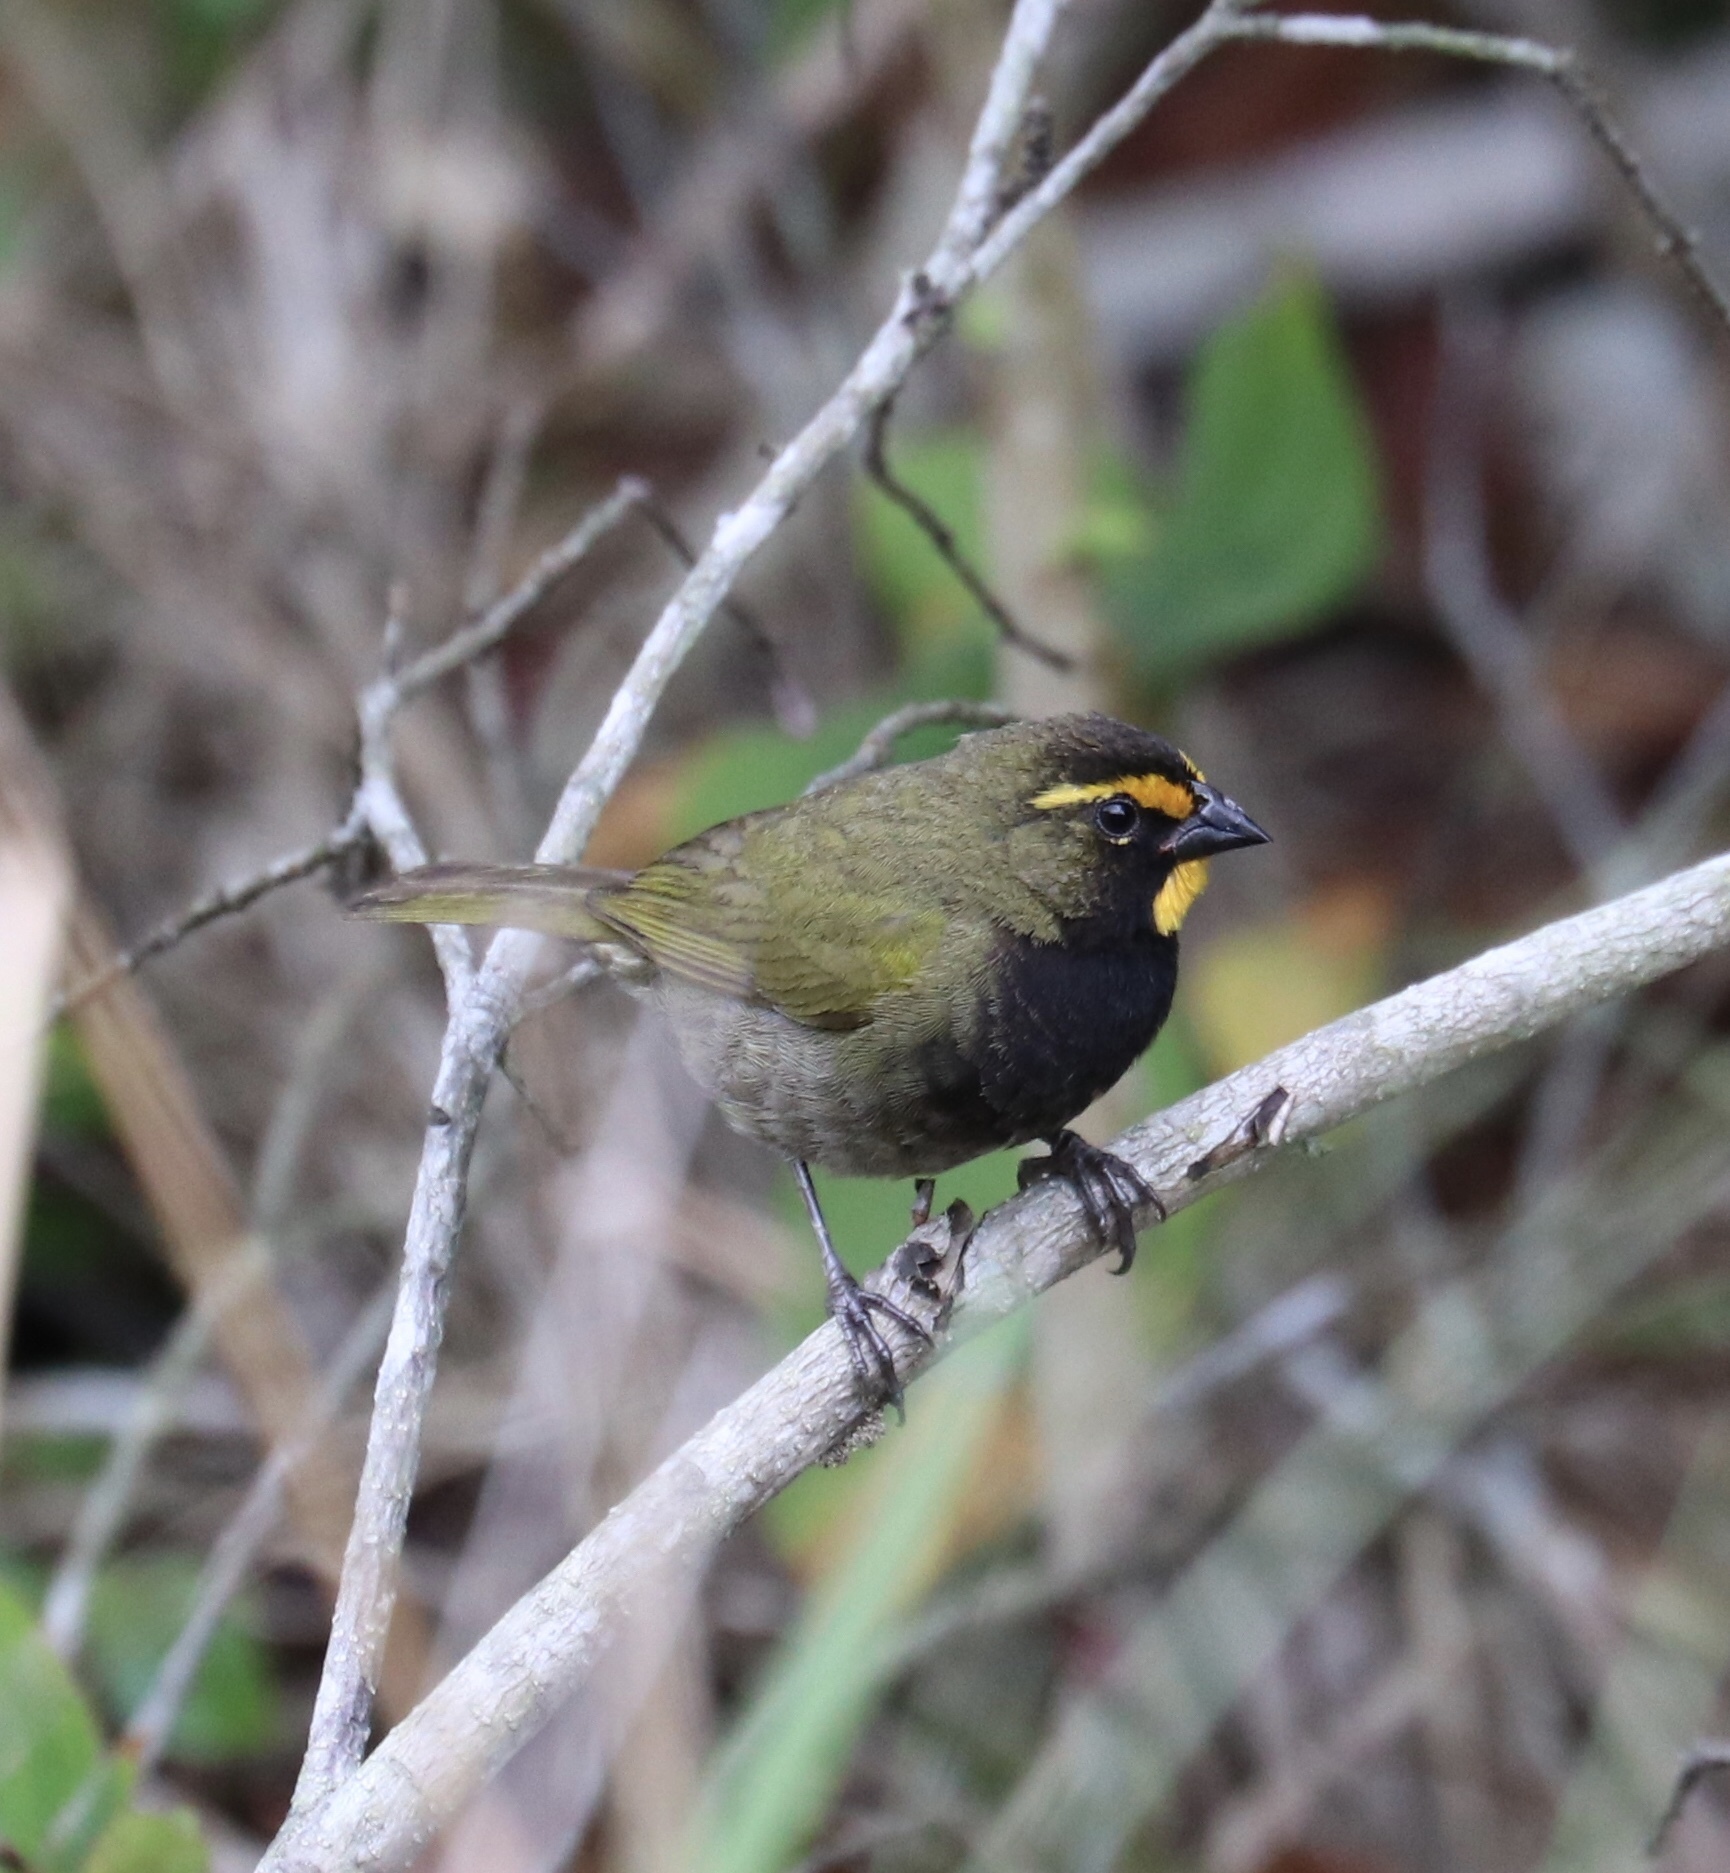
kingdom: Animalia
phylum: Chordata
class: Aves
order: Passeriformes
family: Thraupidae
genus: Tiaris
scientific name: Tiaris olivaceus
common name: Yellow-faced grassquit
